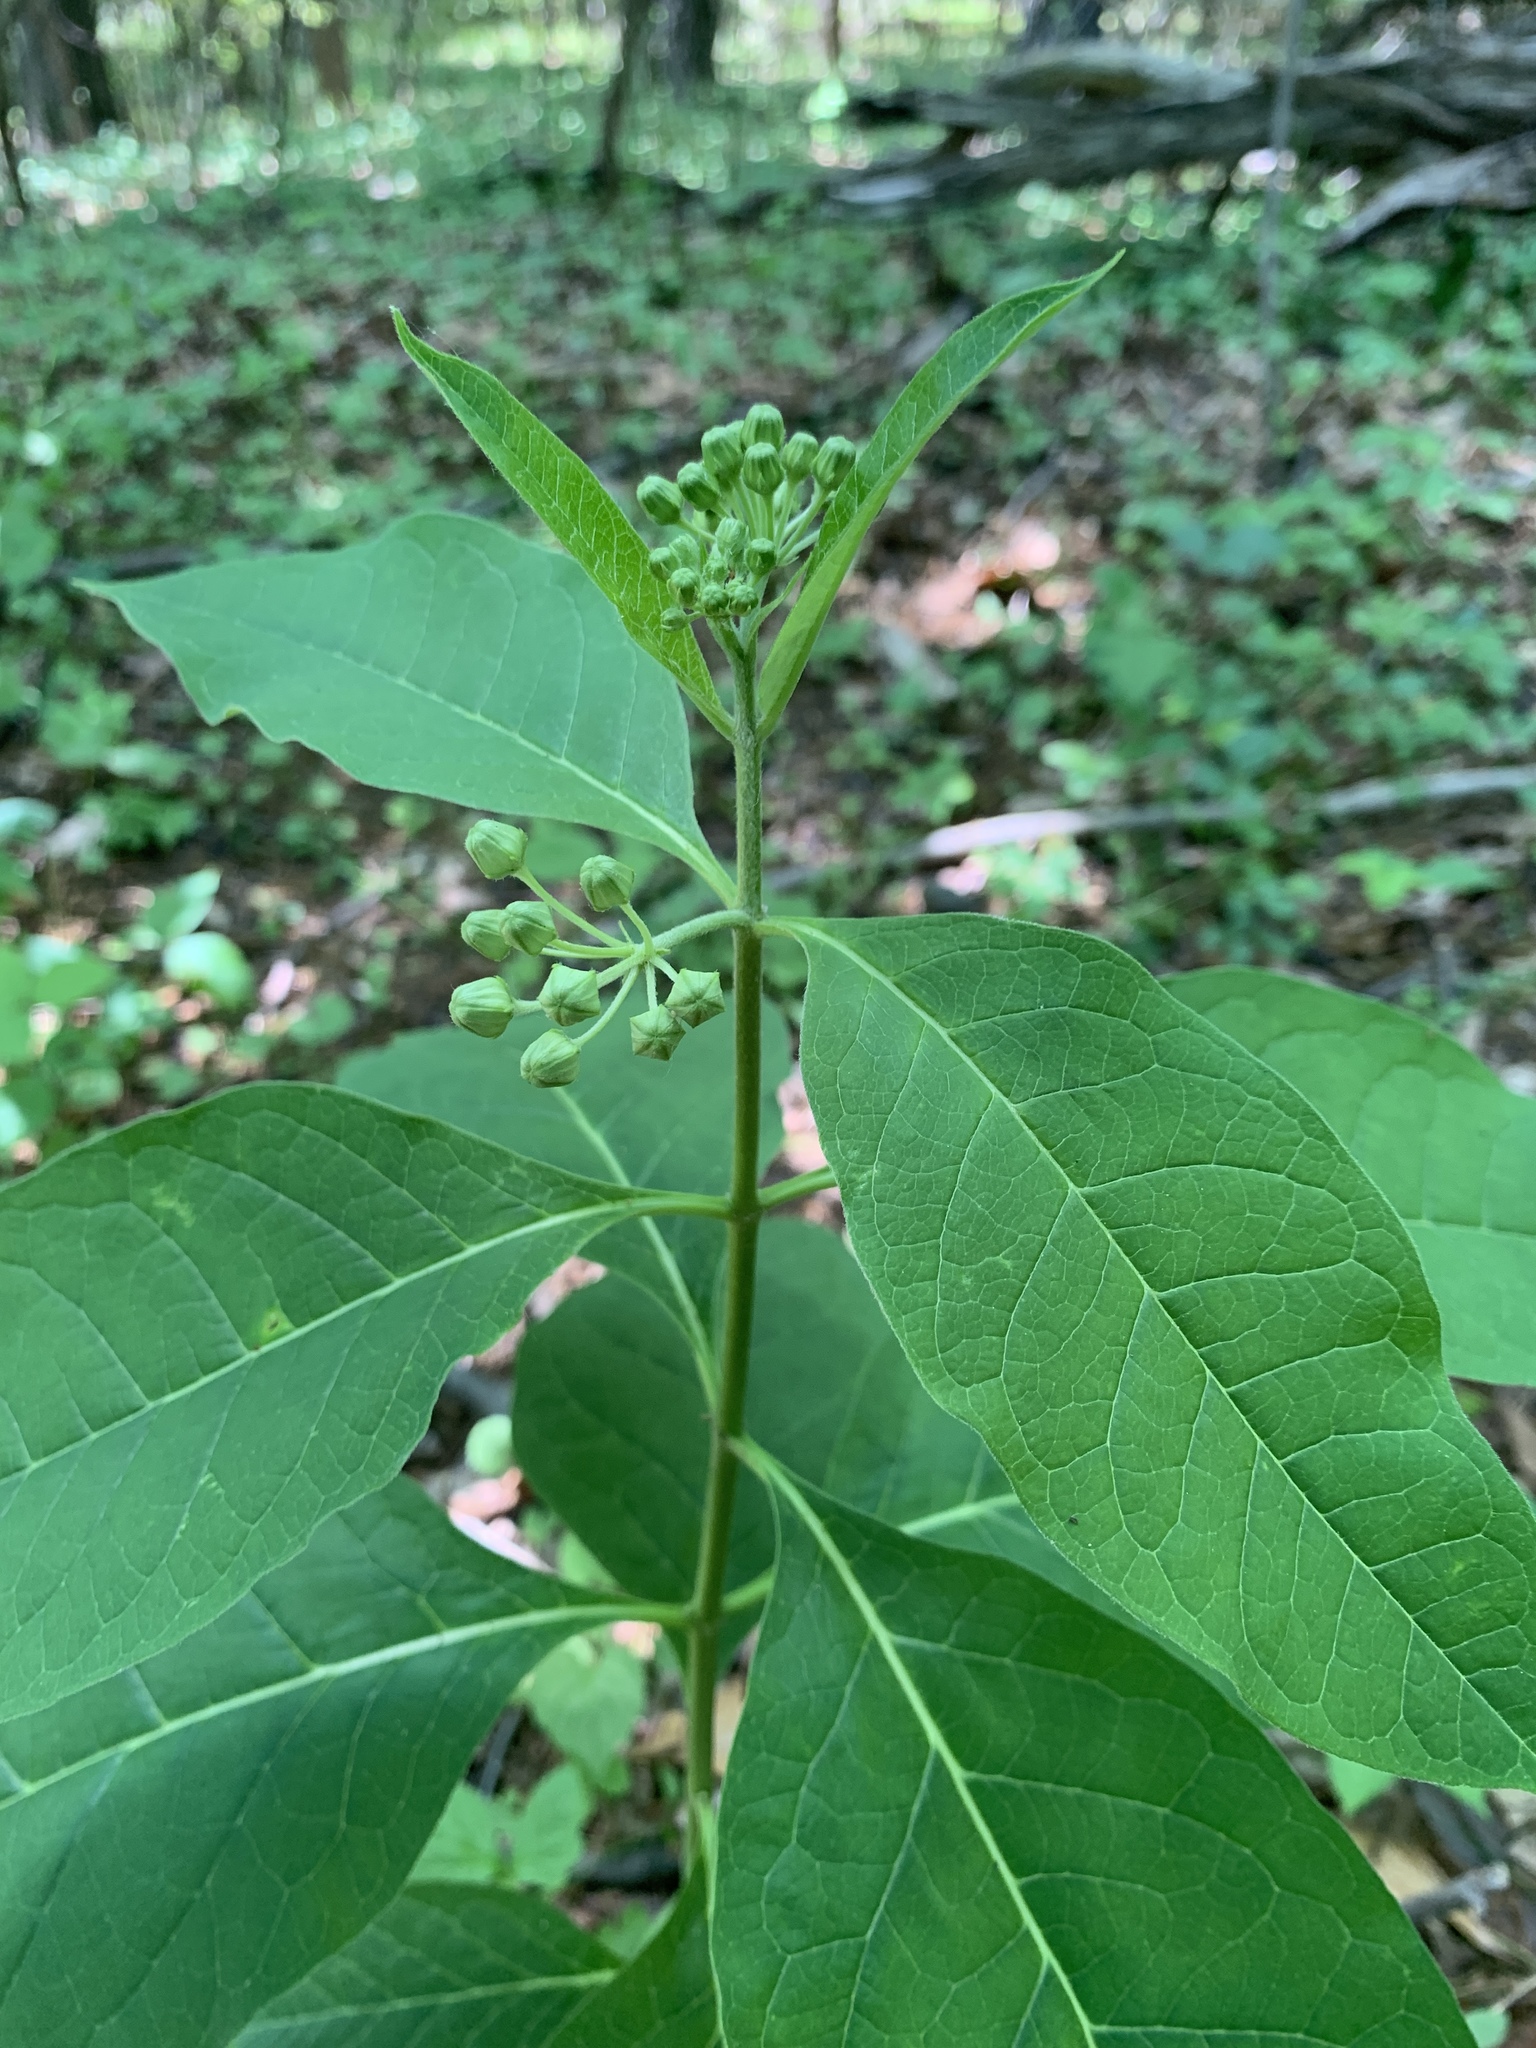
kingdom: Plantae
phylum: Tracheophyta
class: Magnoliopsida
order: Gentianales
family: Apocynaceae
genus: Asclepias
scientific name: Asclepias exaltata
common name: Poke milkweed
